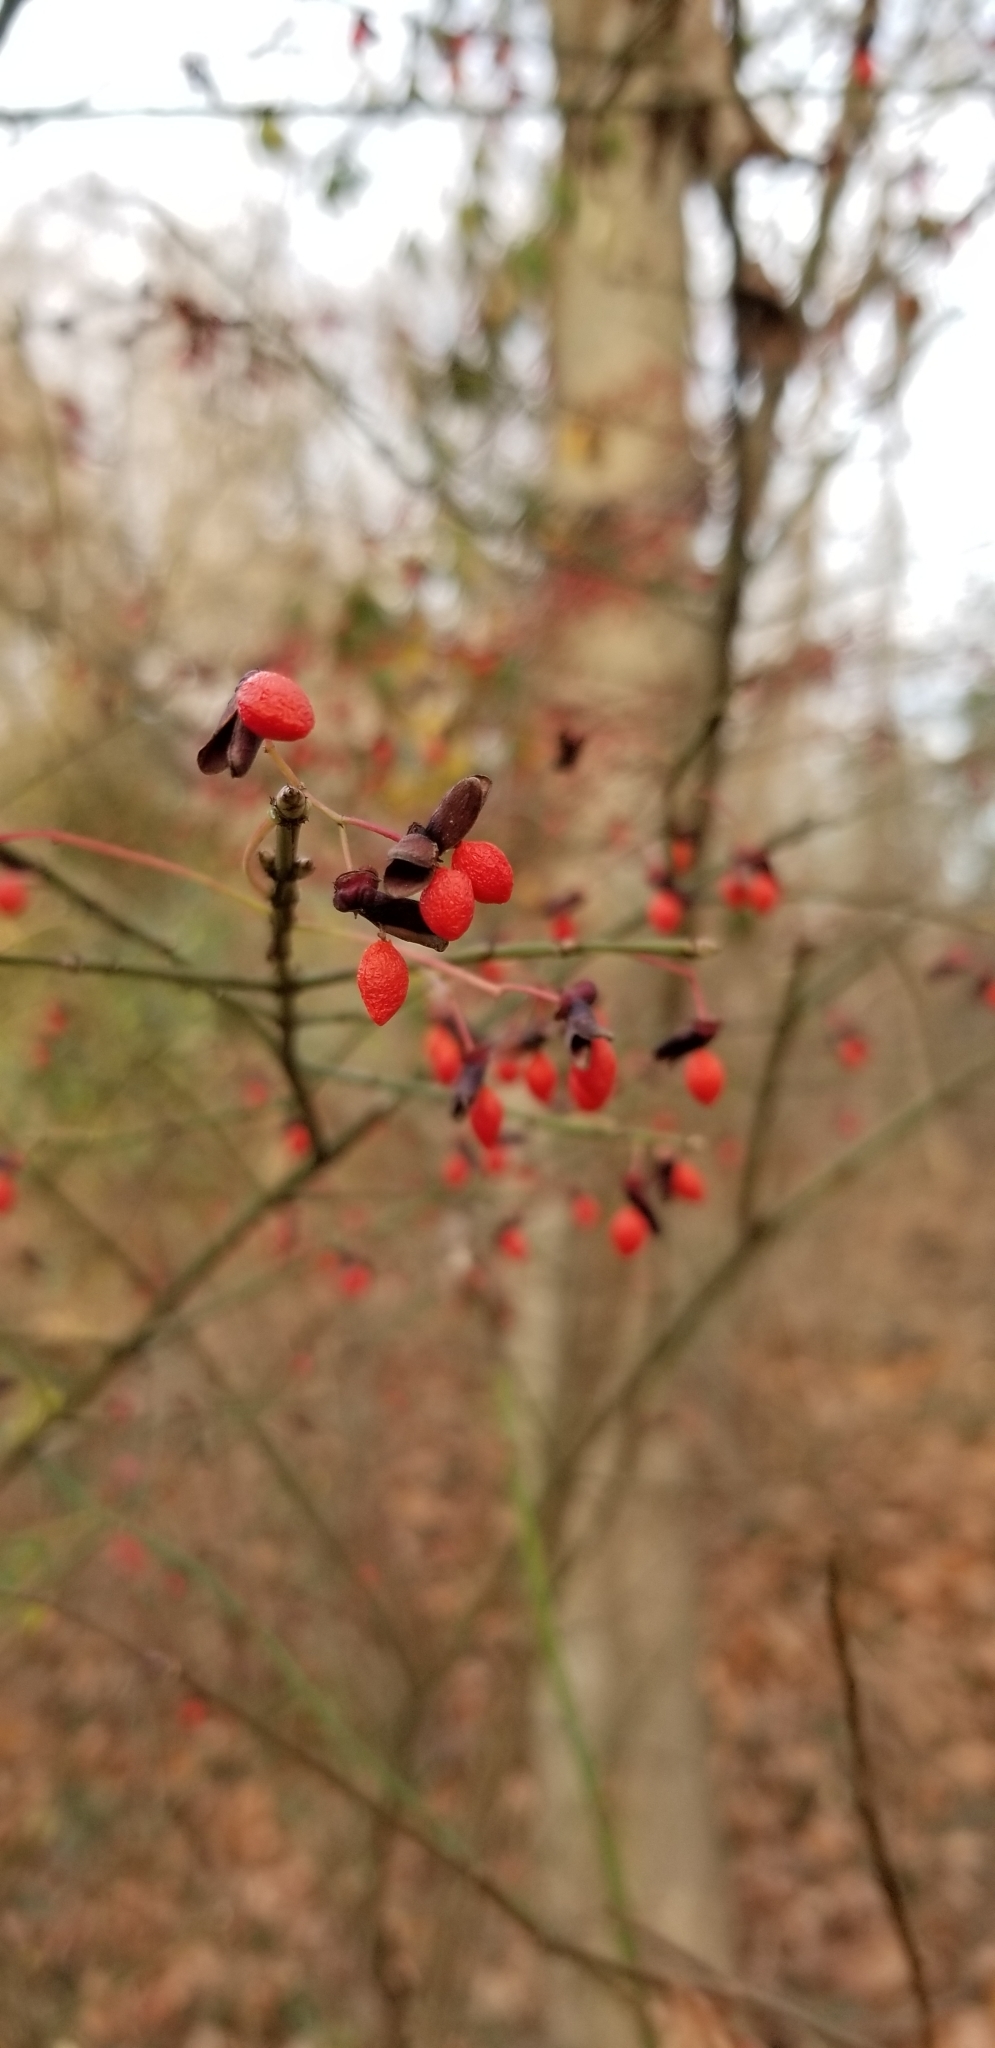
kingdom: Plantae
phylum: Tracheophyta
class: Magnoliopsida
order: Celastrales
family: Celastraceae
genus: Euonymus
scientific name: Euonymus alatus
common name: Winged euonymus
